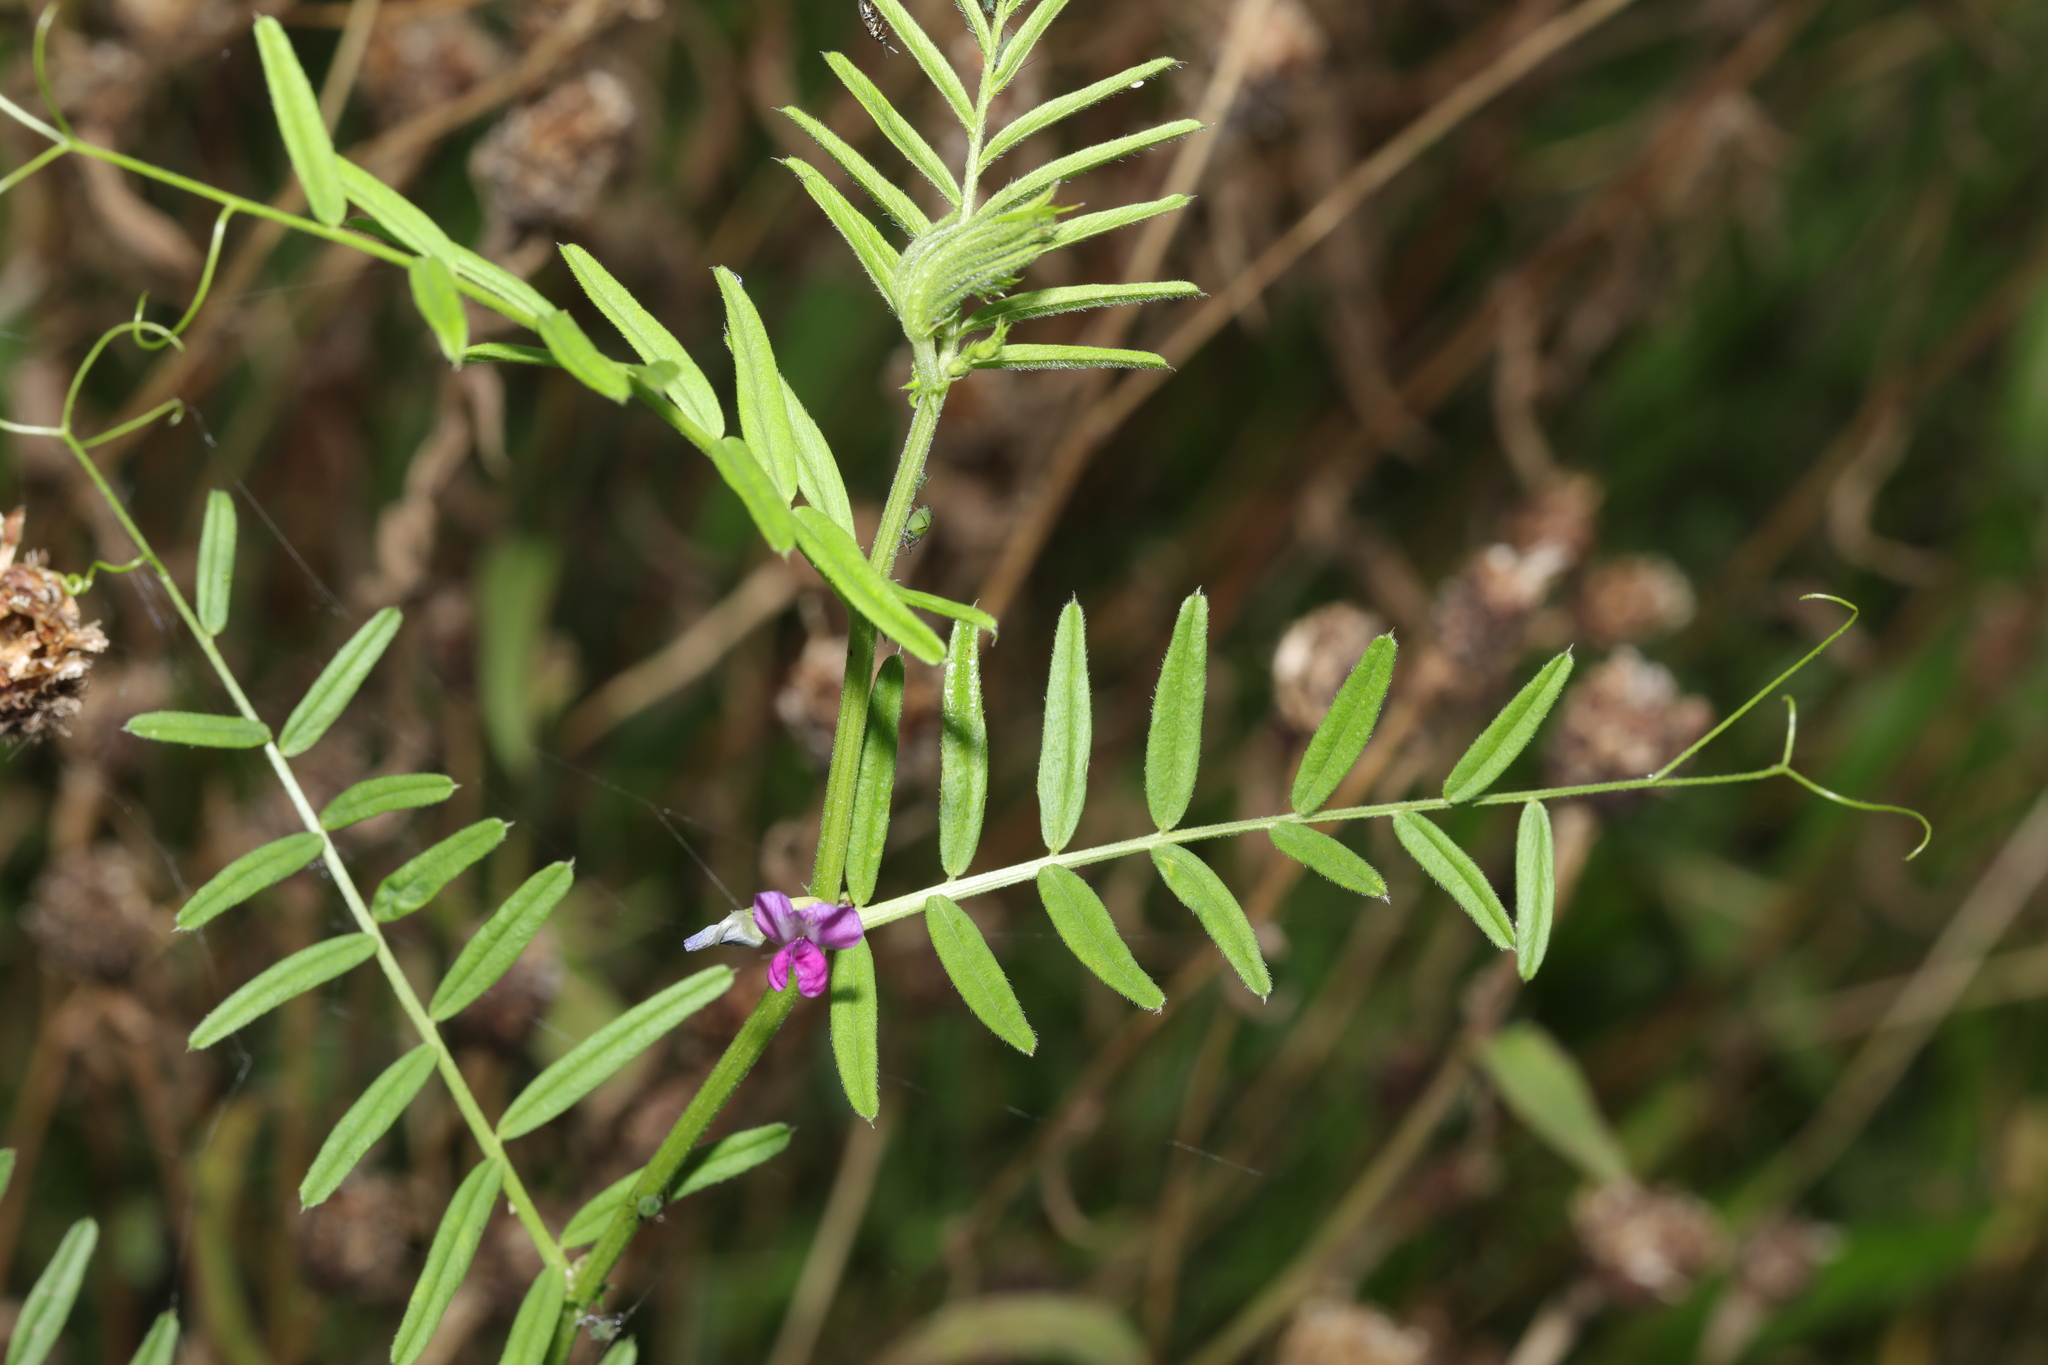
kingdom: Plantae
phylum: Tracheophyta
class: Magnoliopsida
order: Fabales
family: Fabaceae
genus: Vicia
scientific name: Vicia sativa
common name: Garden vetch
